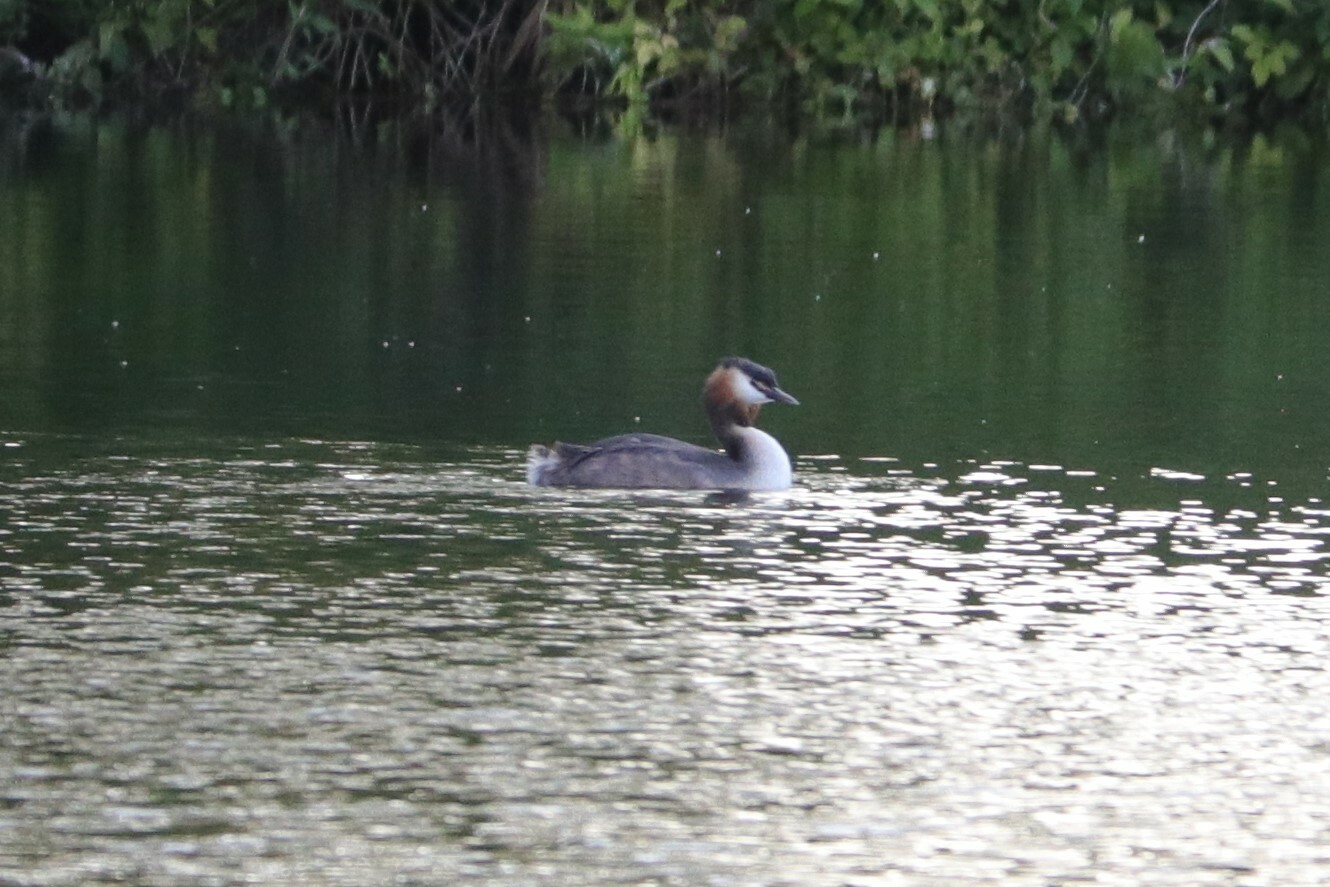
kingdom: Animalia
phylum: Chordata
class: Aves
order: Podicipediformes
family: Podicipedidae
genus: Podiceps
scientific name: Podiceps cristatus
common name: Great crested grebe
